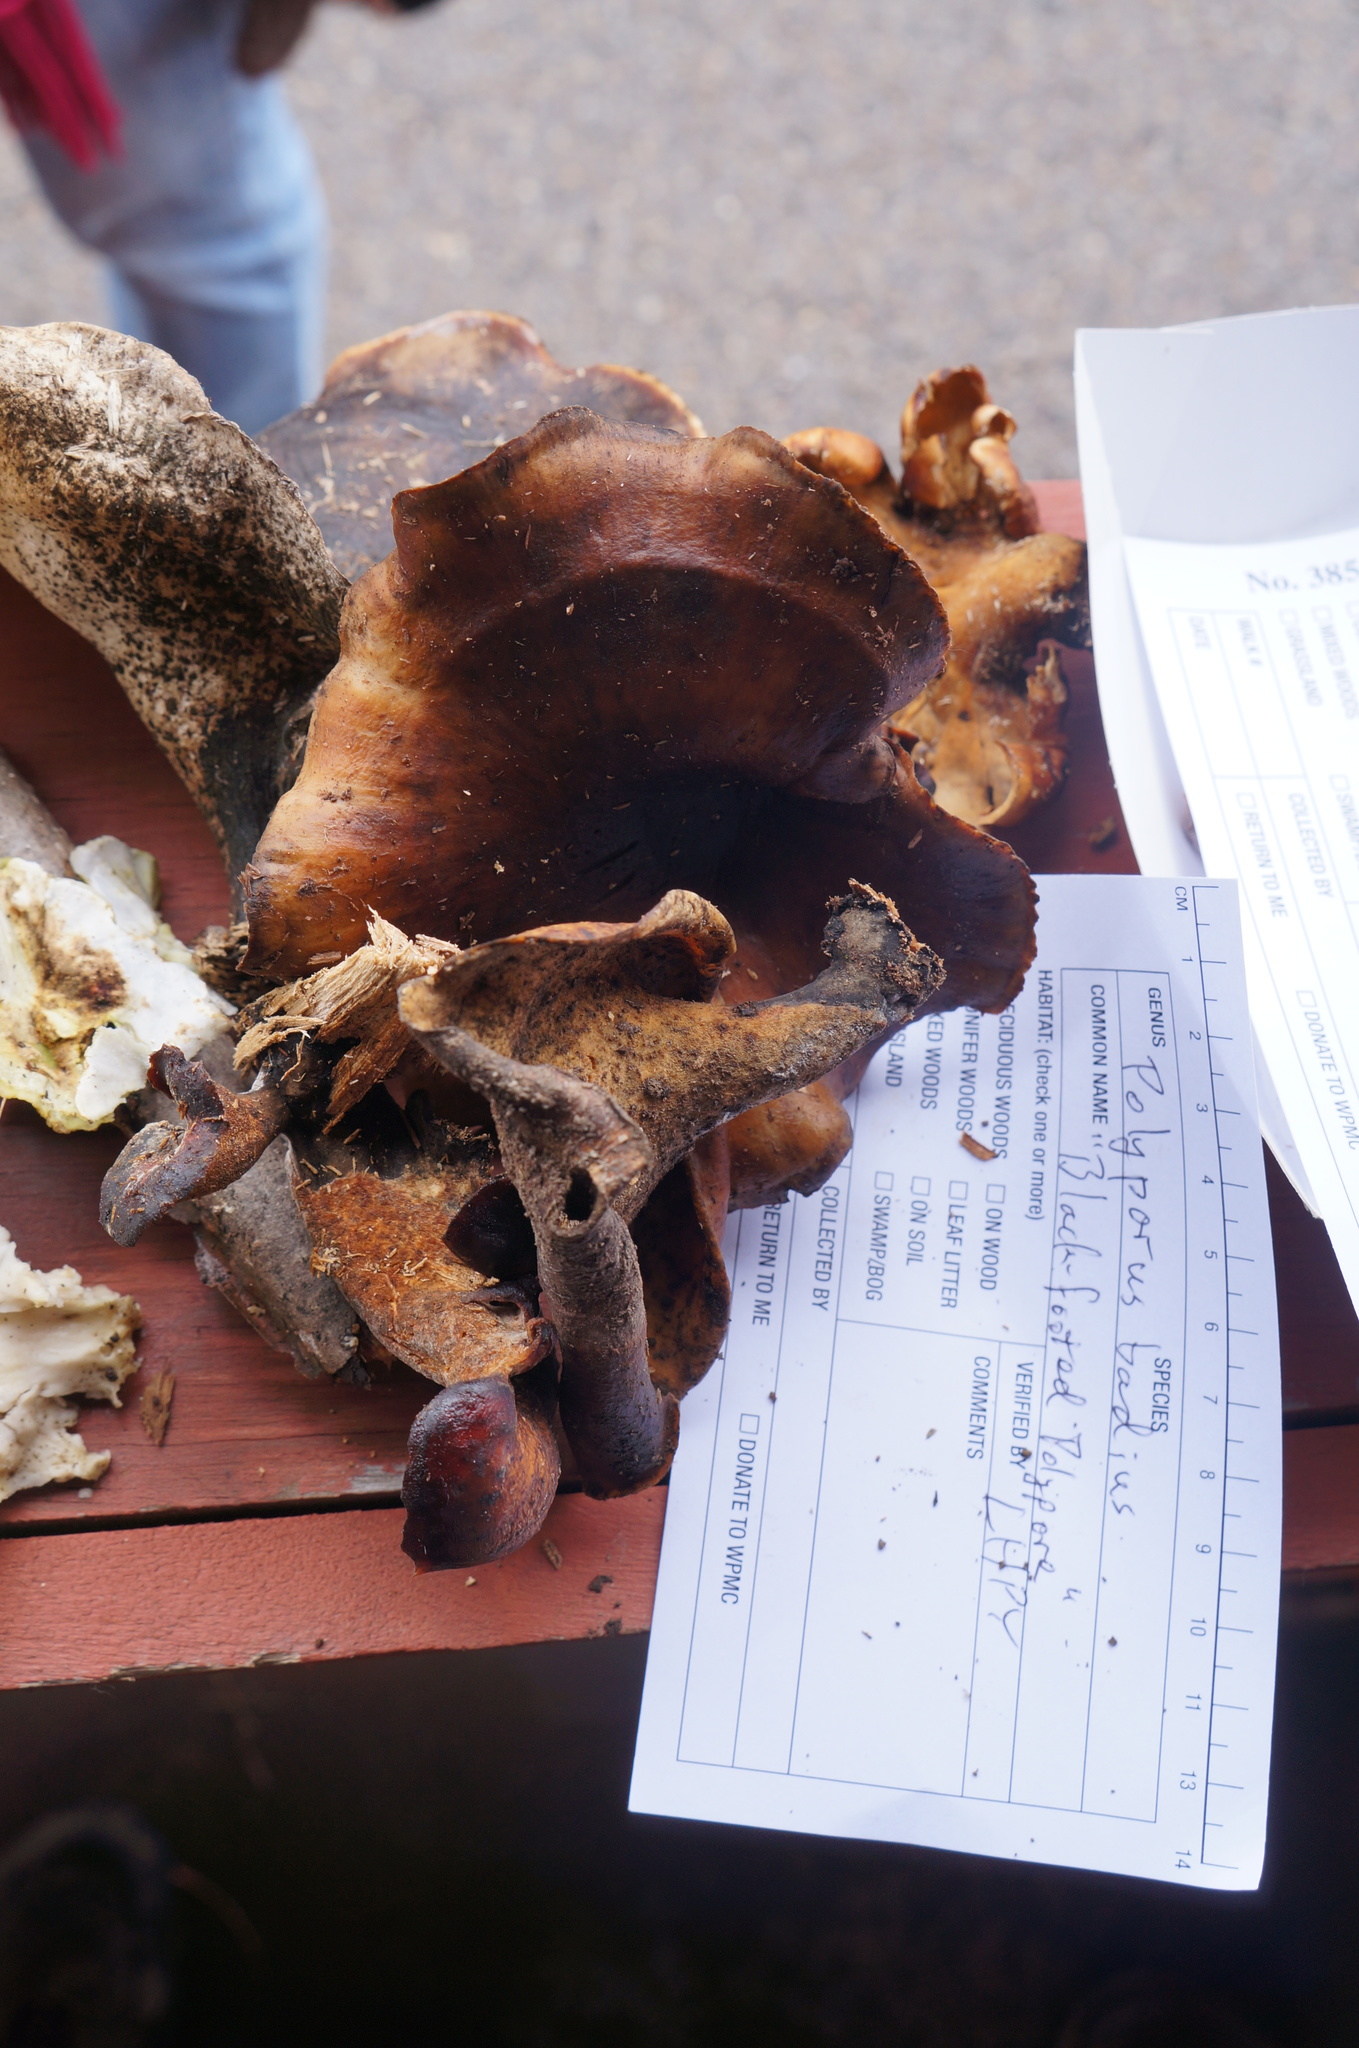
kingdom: Fungi
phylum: Basidiomycota
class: Agaricomycetes
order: Polyporales
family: Polyporaceae
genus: Picipes
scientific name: Picipes badius
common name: Bay polypore
